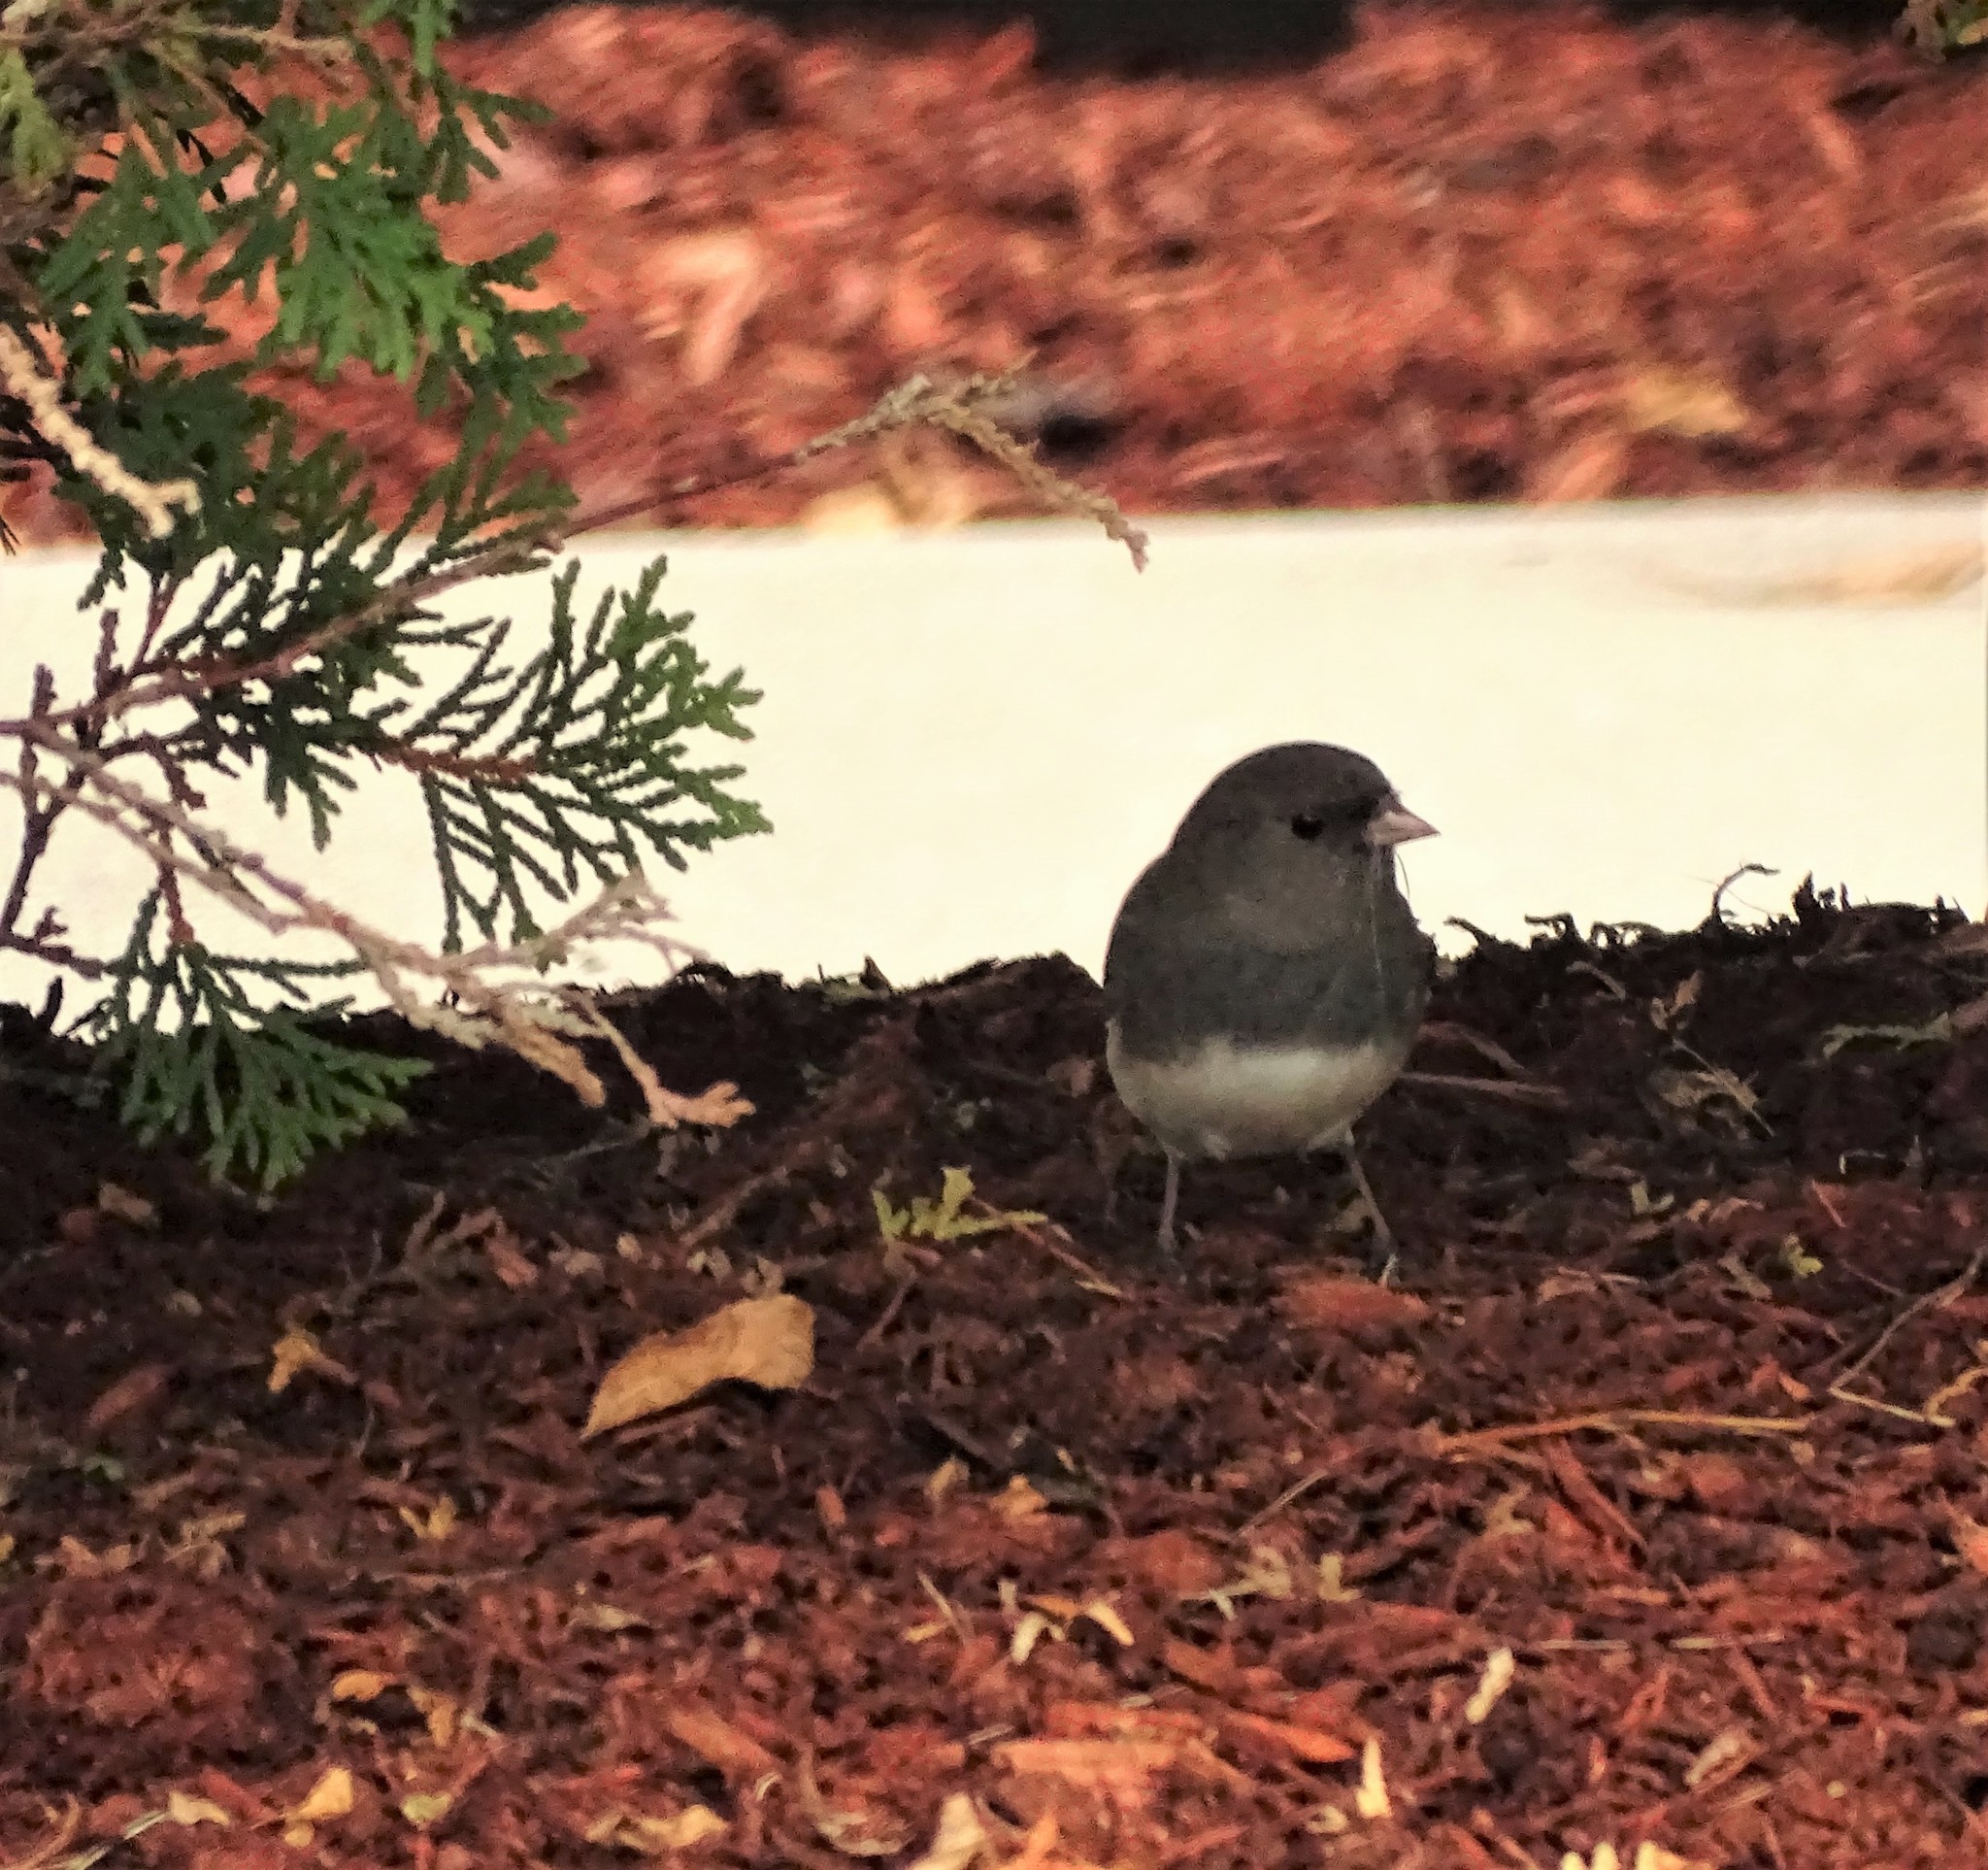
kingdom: Animalia
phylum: Chordata
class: Aves
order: Passeriformes
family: Passerellidae
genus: Junco
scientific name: Junco hyemalis
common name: Dark-eyed junco
